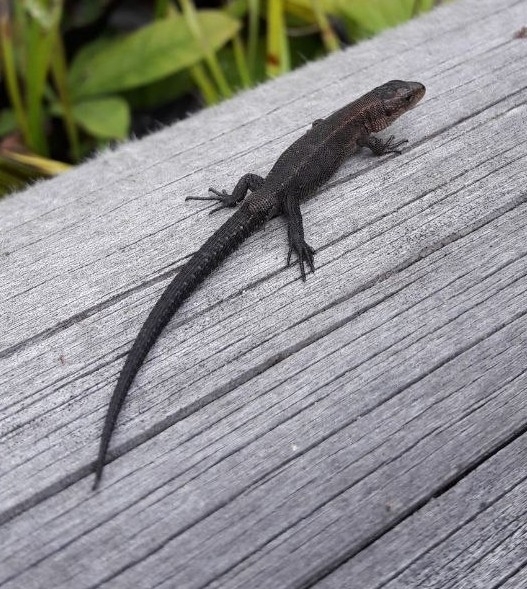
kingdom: Animalia
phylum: Chordata
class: Squamata
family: Lacertidae
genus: Zootoca
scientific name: Zootoca vivipara
